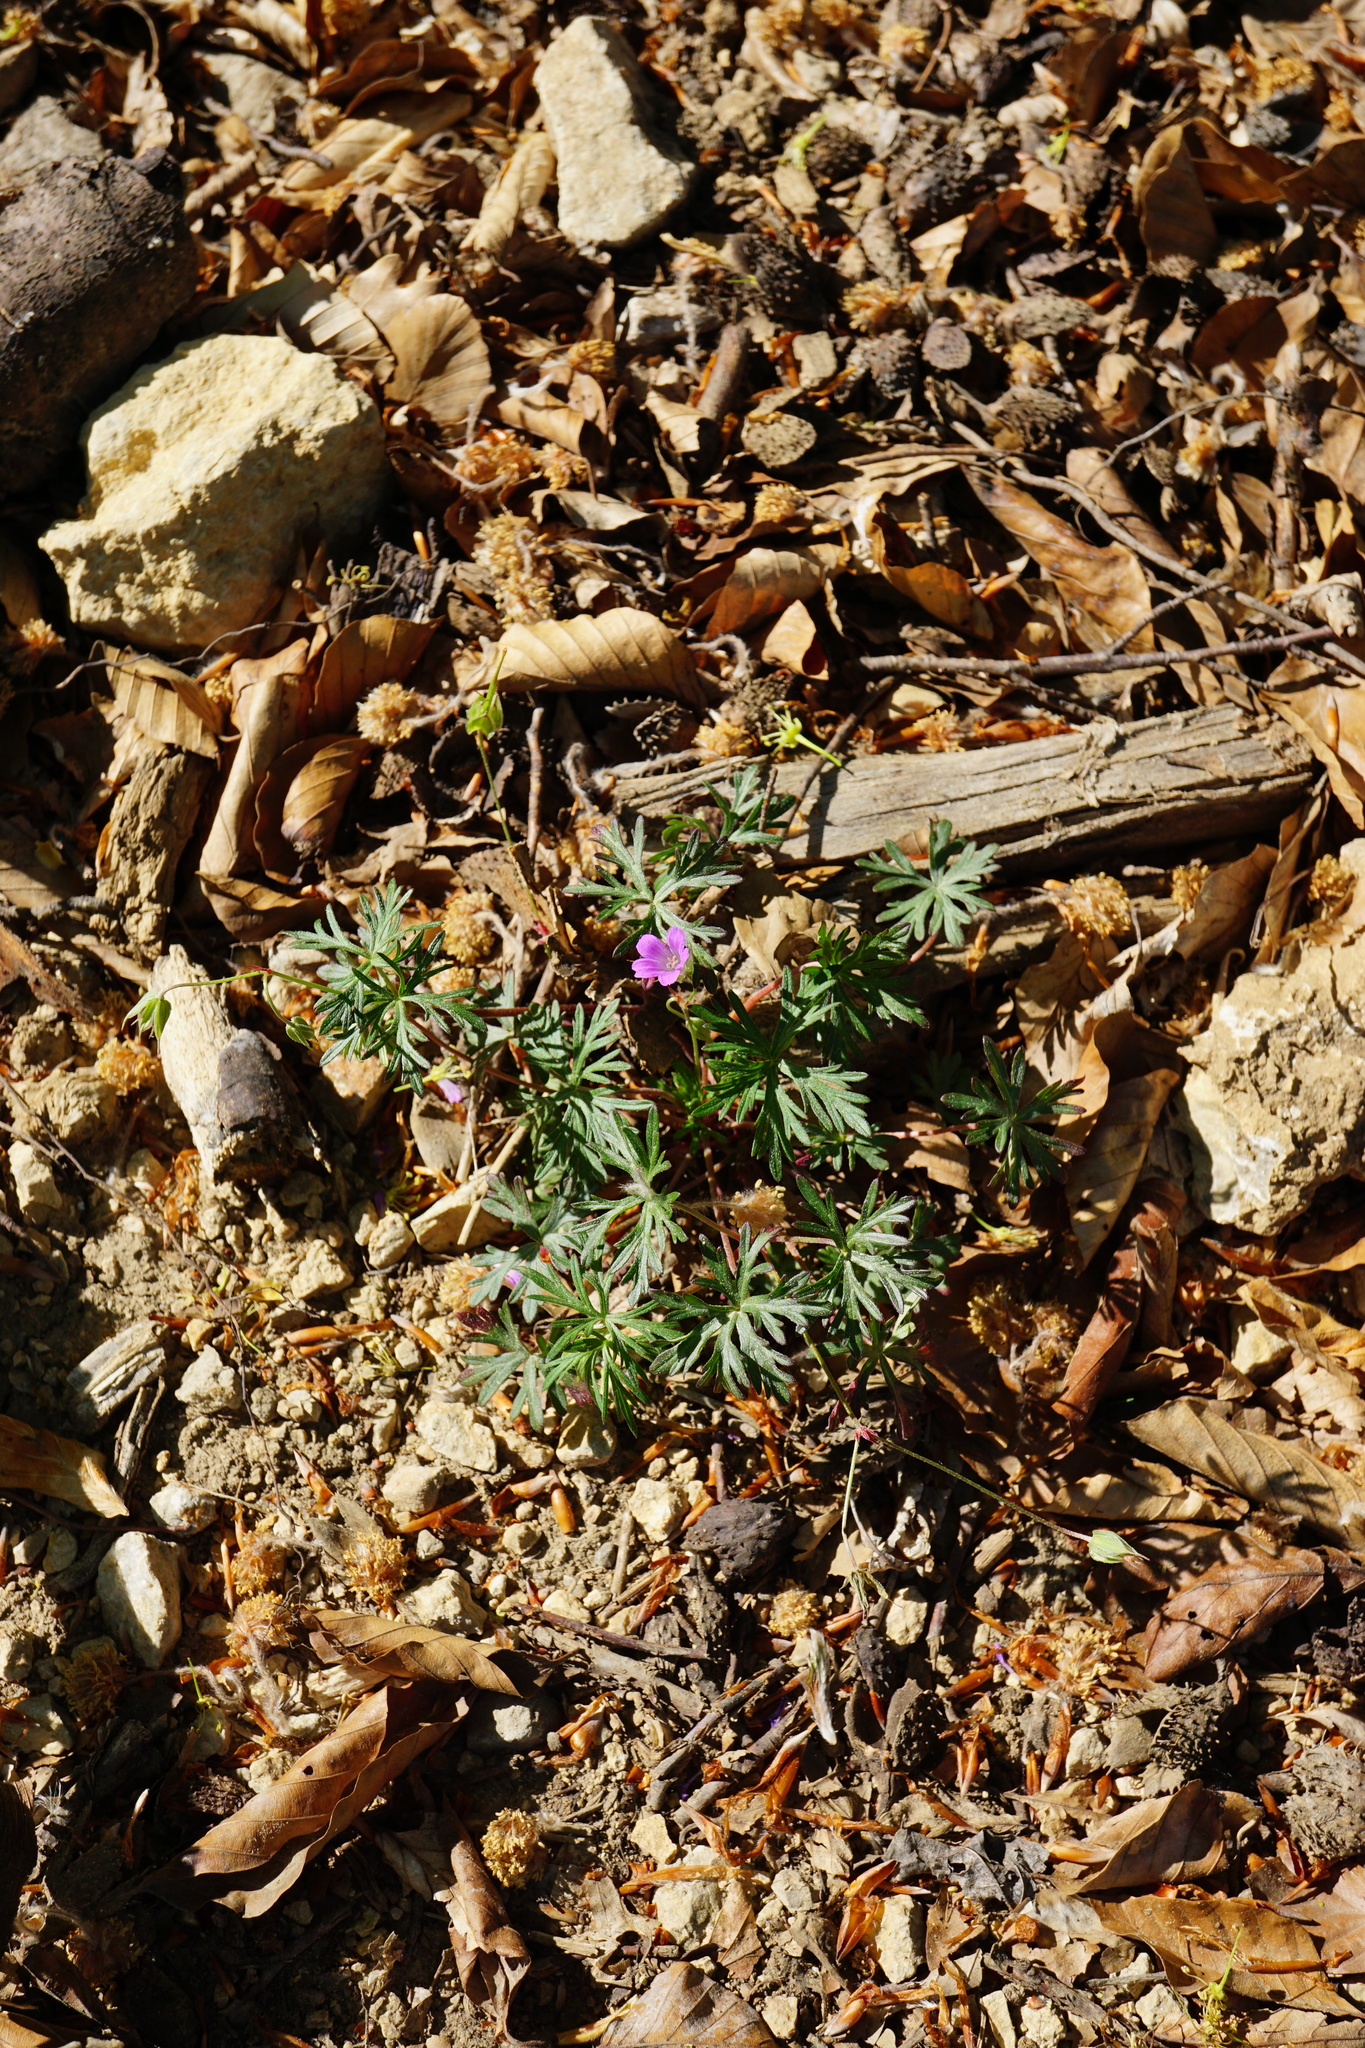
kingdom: Plantae
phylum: Tracheophyta
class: Magnoliopsida
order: Geraniales
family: Geraniaceae
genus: Geranium
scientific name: Geranium columbinum
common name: Long-stalked crane's-bill
